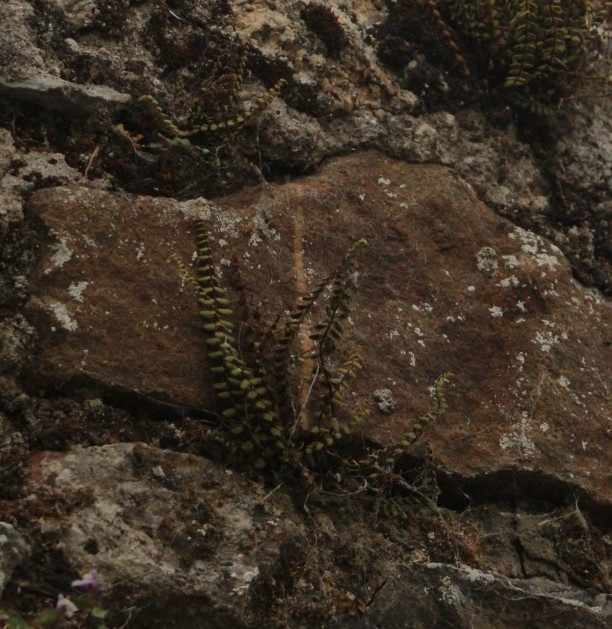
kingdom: Plantae
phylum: Tracheophyta
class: Polypodiopsida
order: Polypodiales
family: Aspleniaceae
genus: Asplenium
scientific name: Asplenium trichomanes
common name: Maidenhair spleenwort
